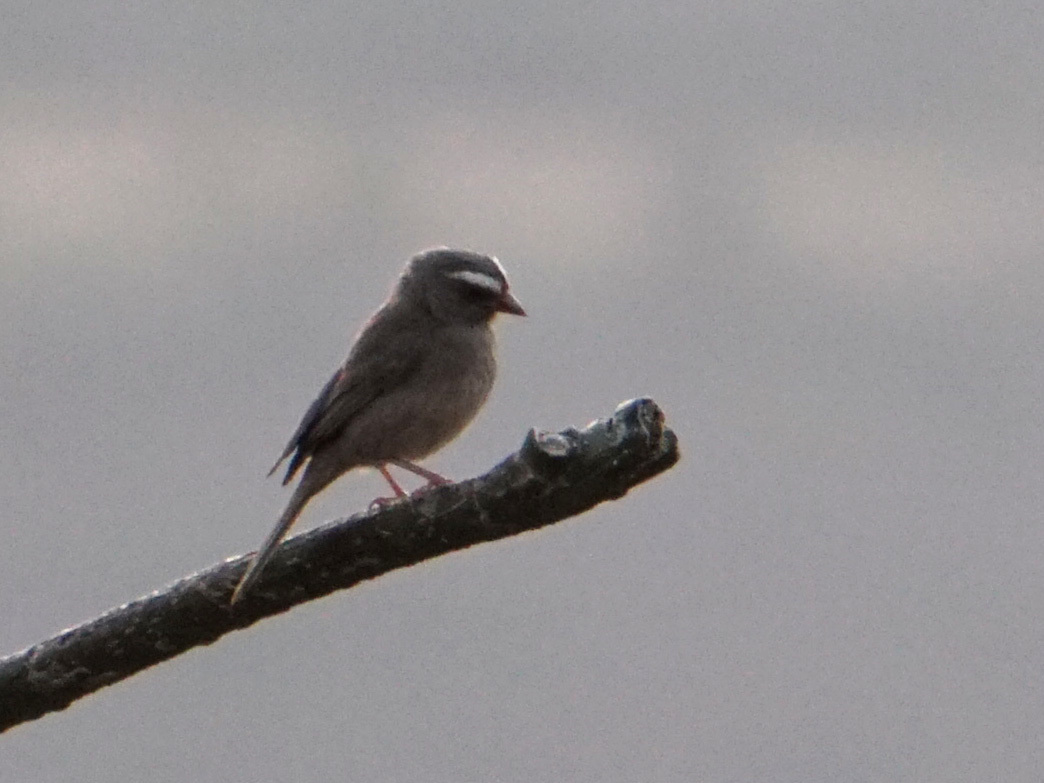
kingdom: Animalia
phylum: Chordata
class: Aves
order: Passeriformes
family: Fringillidae
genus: Crithagra
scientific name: Crithagra tristriata
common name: Brown-rumped seedeater
